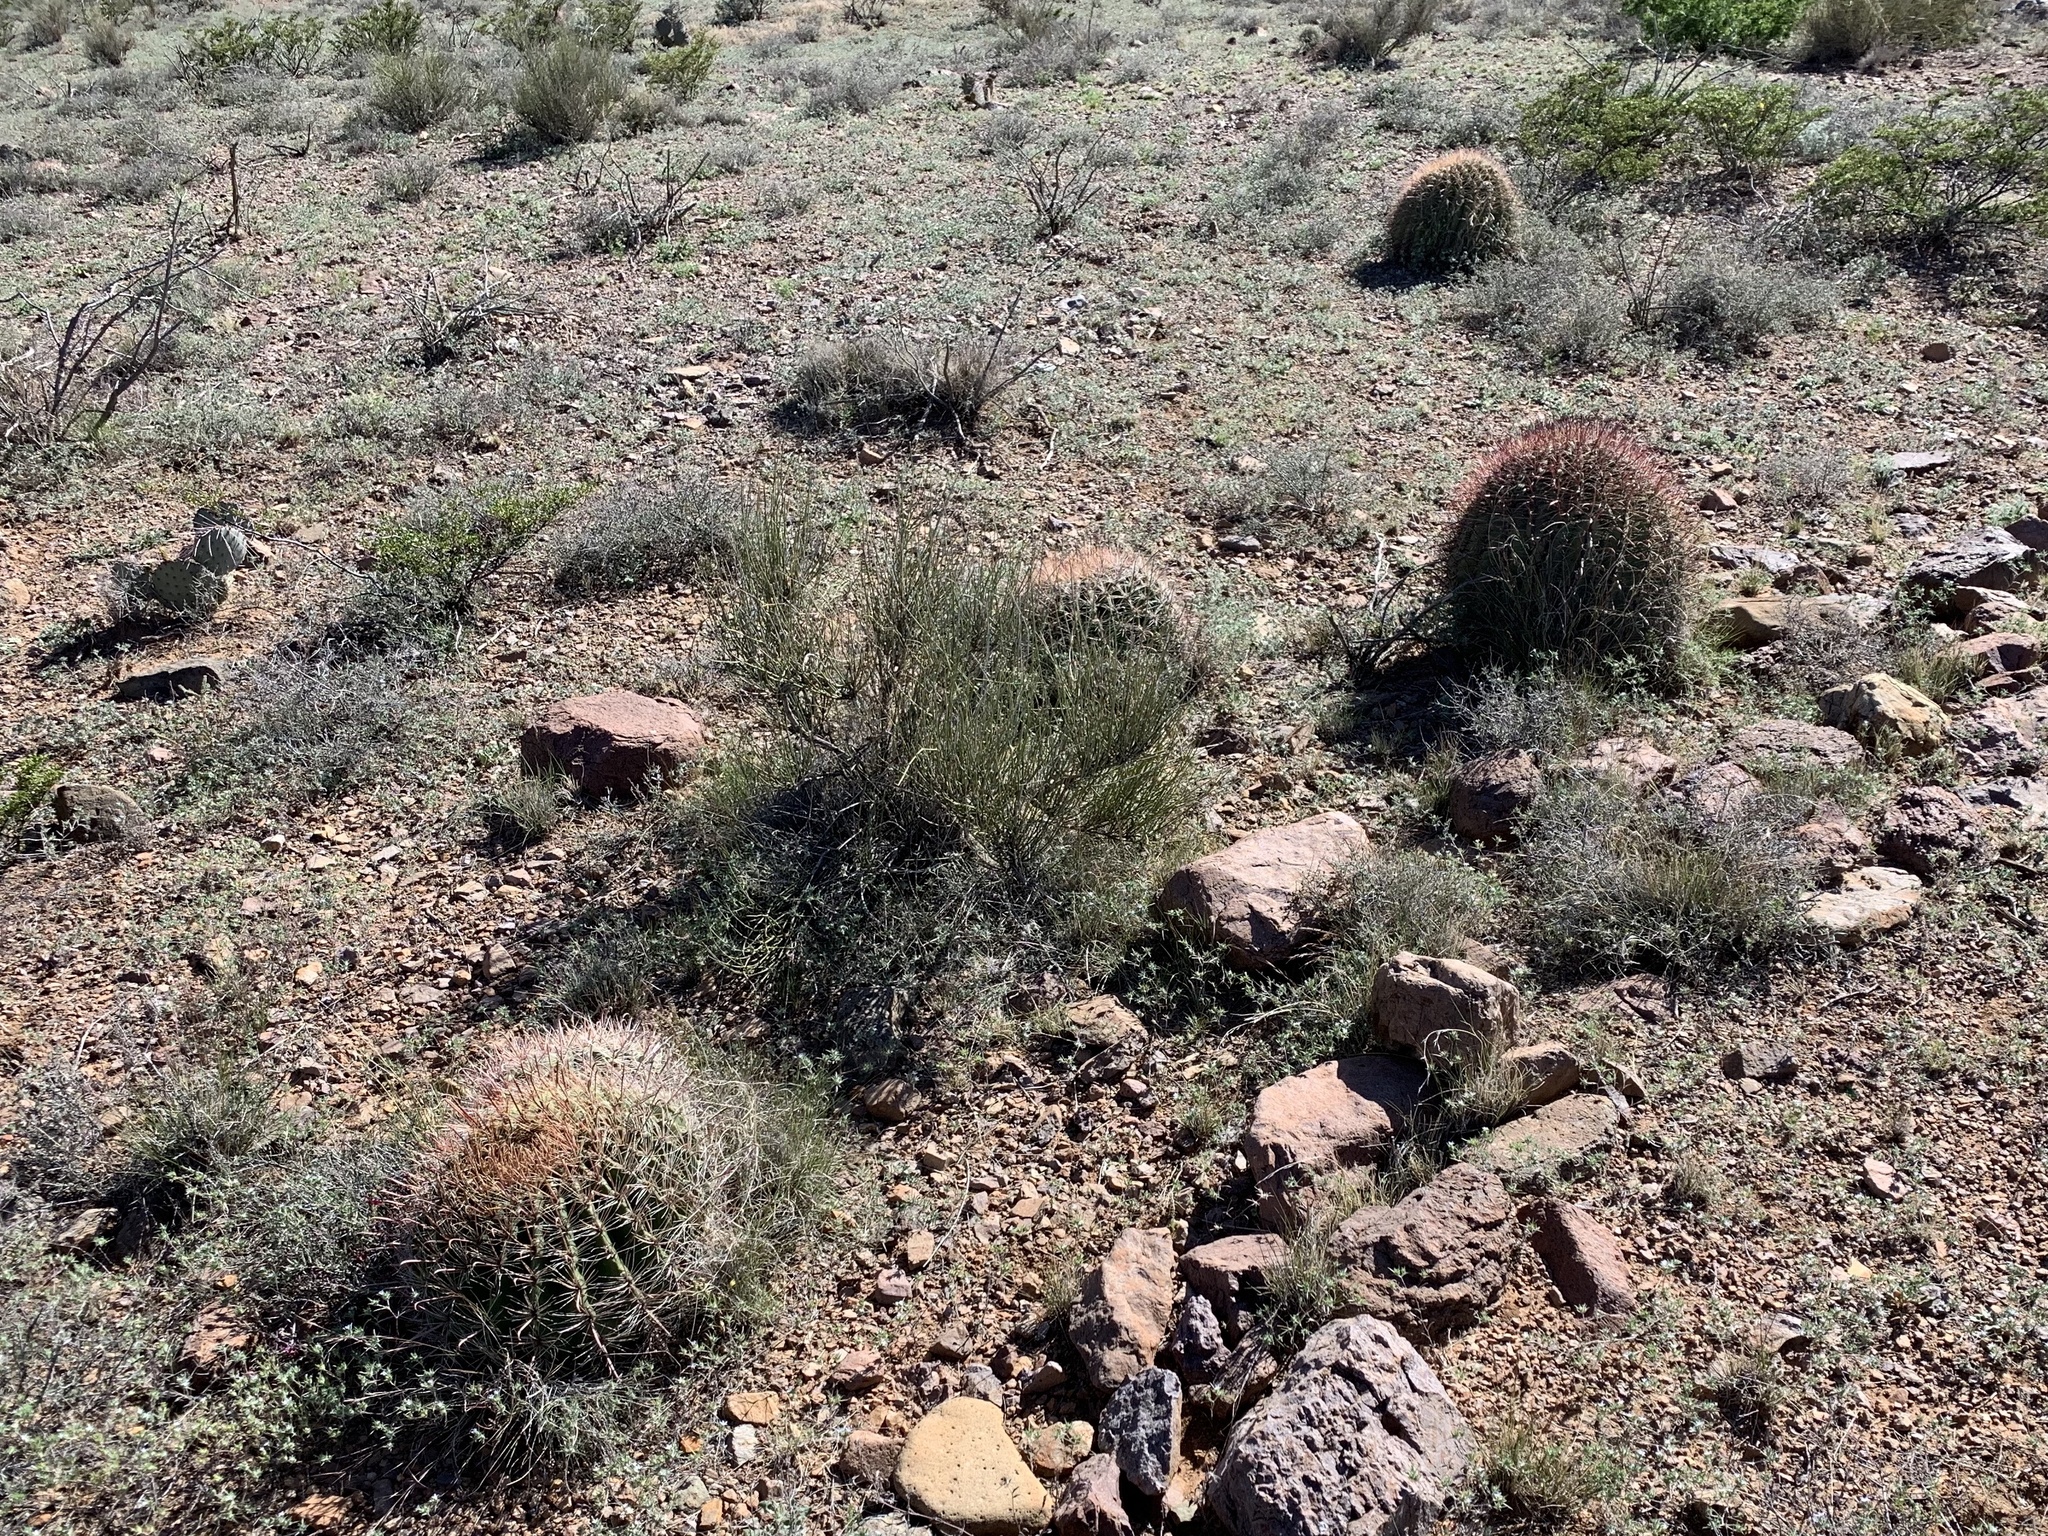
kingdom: Plantae
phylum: Tracheophyta
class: Magnoliopsida
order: Caryophyllales
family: Cactaceae
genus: Ferocactus
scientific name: Ferocactus wislizeni
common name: Candy barrel cactus
